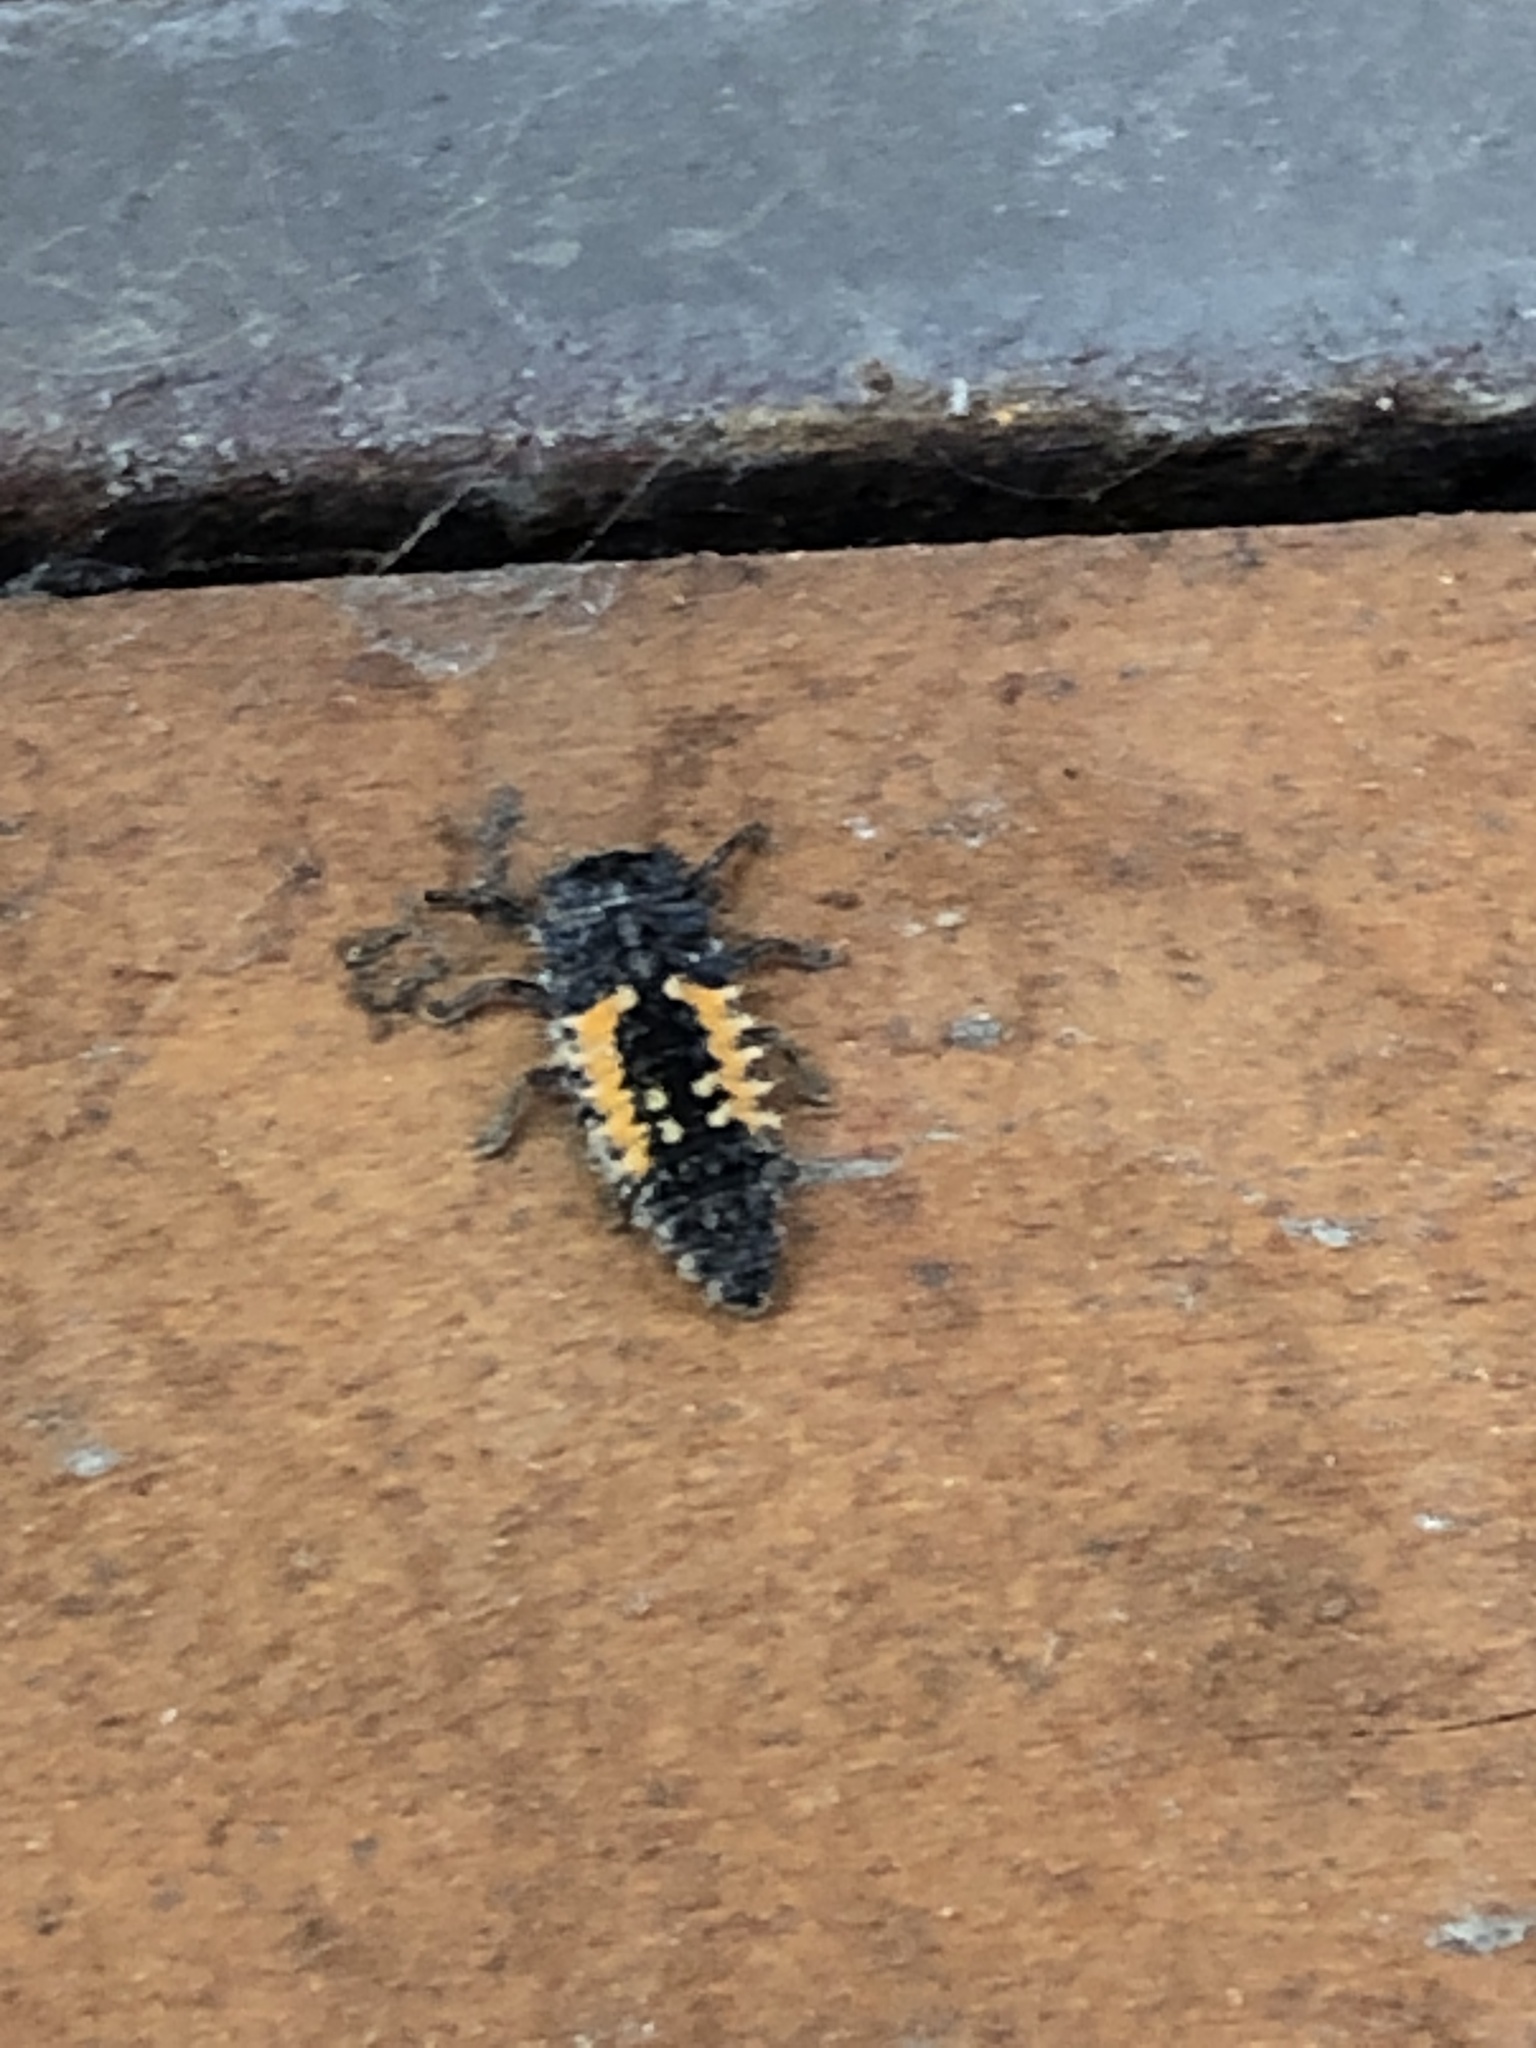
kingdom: Animalia
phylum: Arthropoda
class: Insecta
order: Coleoptera
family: Coccinellidae
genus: Harmonia
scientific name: Harmonia axyridis
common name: Harlequin ladybird
